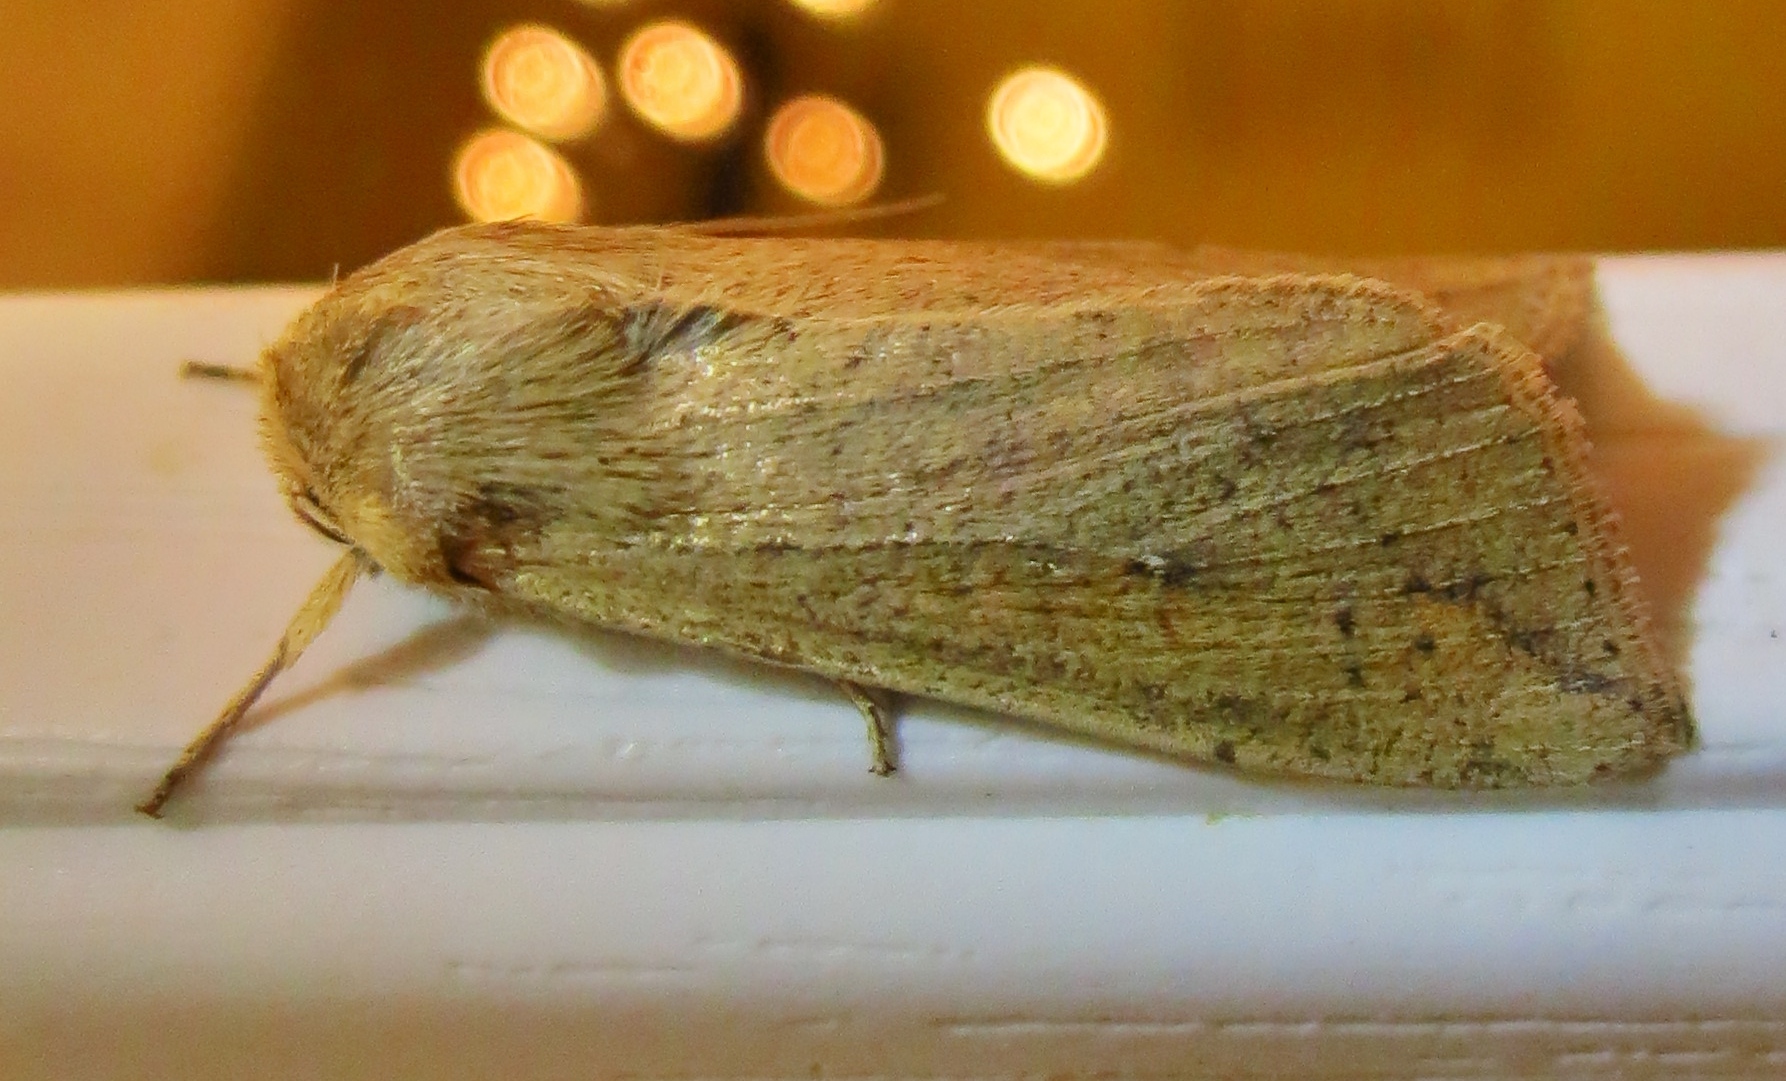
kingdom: Animalia
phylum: Arthropoda
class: Insecta
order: Lepidoptera
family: Noctuidae
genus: Mythimna
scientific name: Mythimna unipuncta
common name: White-speck
